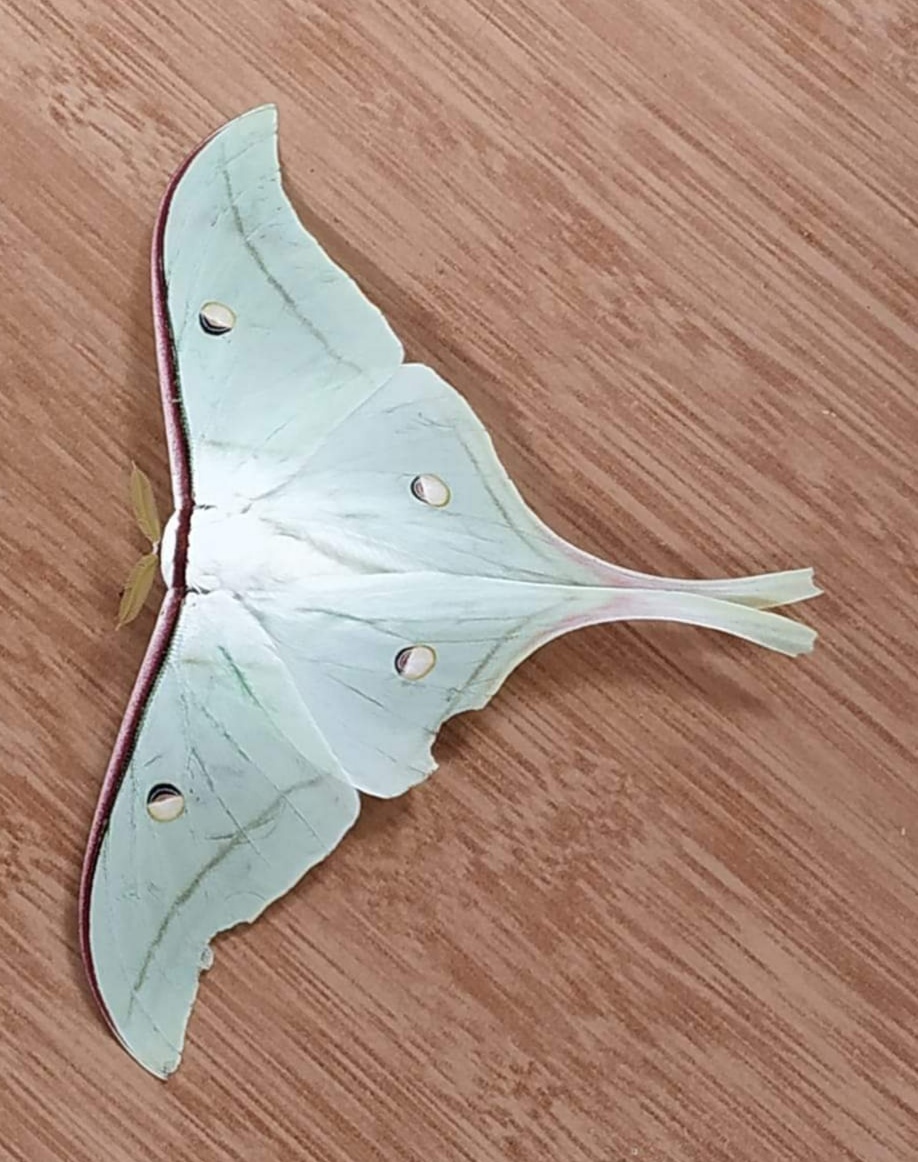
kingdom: Animalia
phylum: Arthropoda
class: Insecta
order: Lepidoptera
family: Saturniidae
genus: Actias
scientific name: Actias selene
